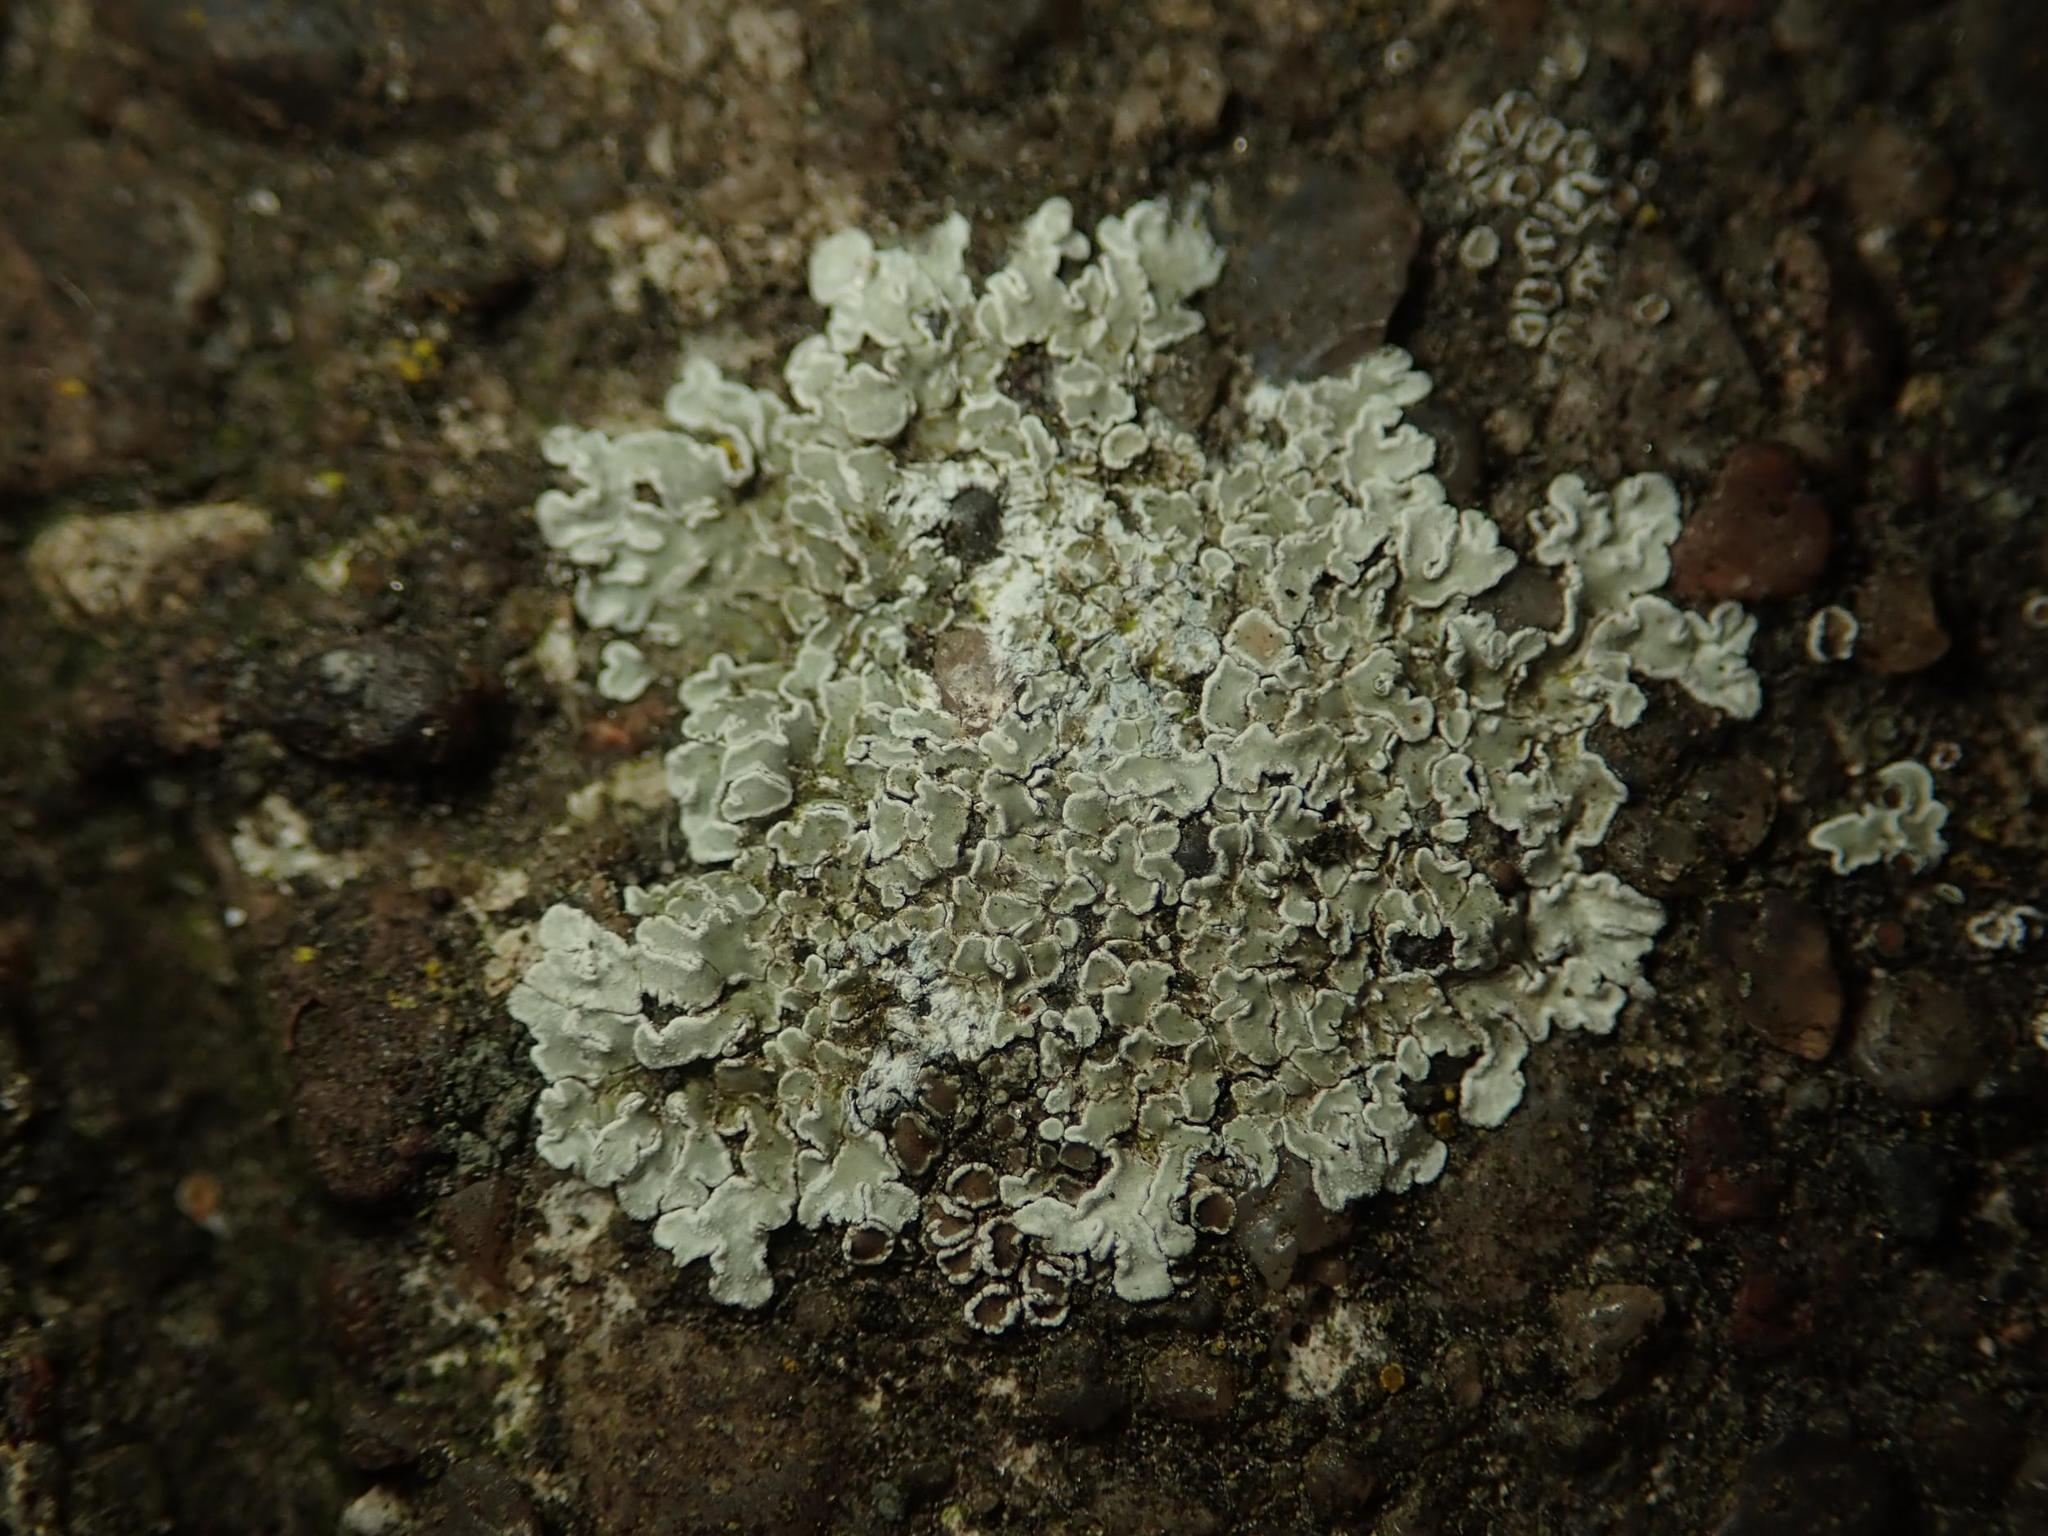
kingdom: Fungi
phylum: Ascomycota
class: Lecanoromycetes
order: Lecanorales
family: Lecanoraceae
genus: Protoparmeliopsis
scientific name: Protoparmeliopsis muralis
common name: Stonewall rim lichen
